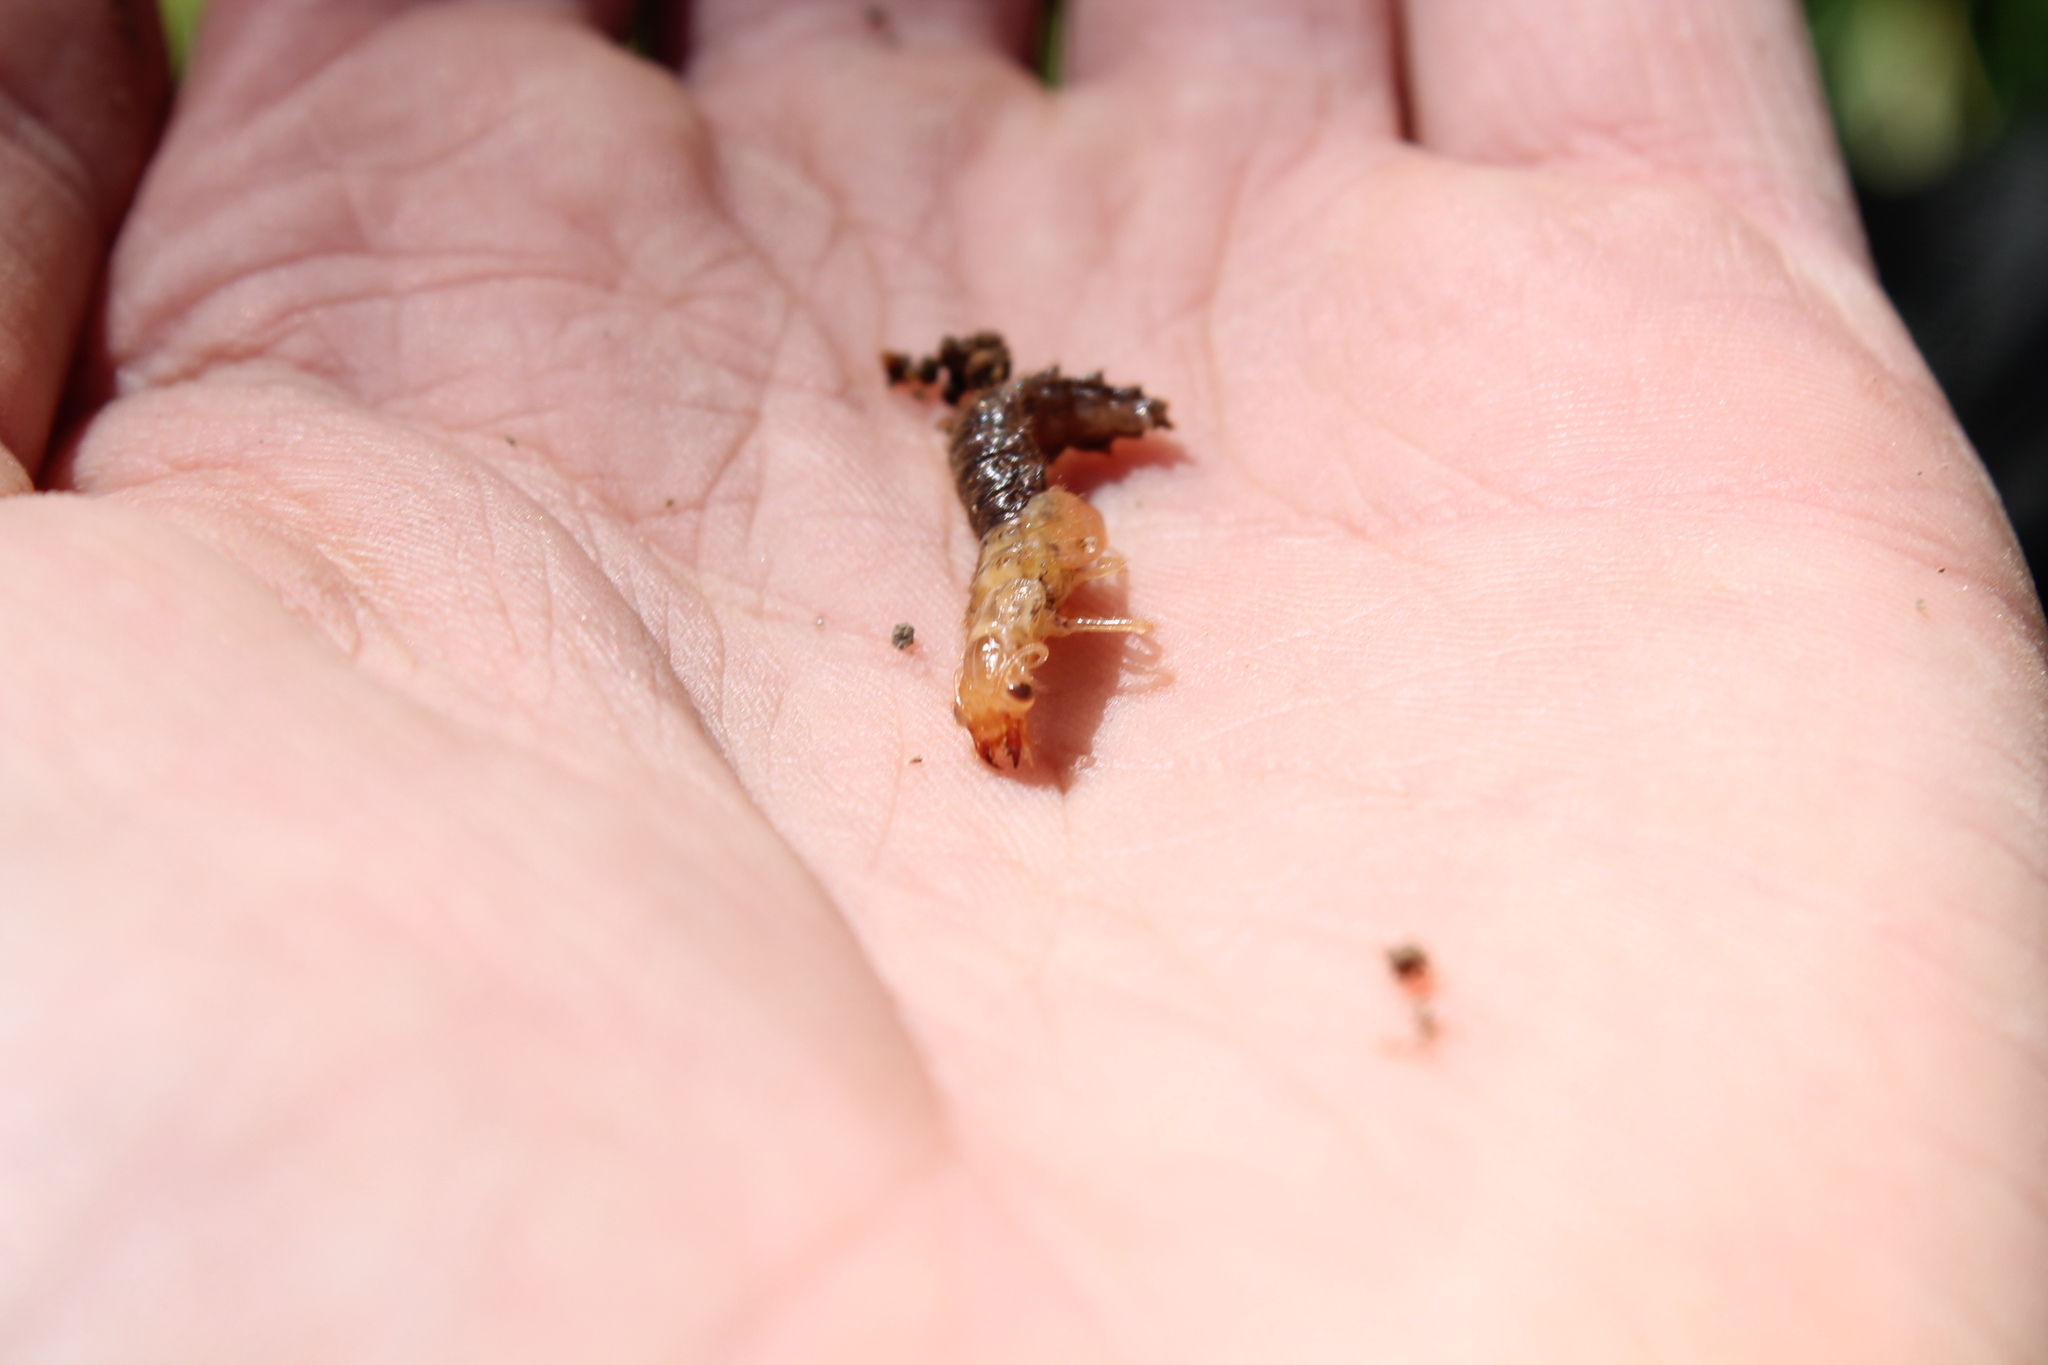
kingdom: Animalia
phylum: Arthropoda
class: Insecta
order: Megaloptera
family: Corydalidae
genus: Archichauliodes
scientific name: Archichauliodes diversus
